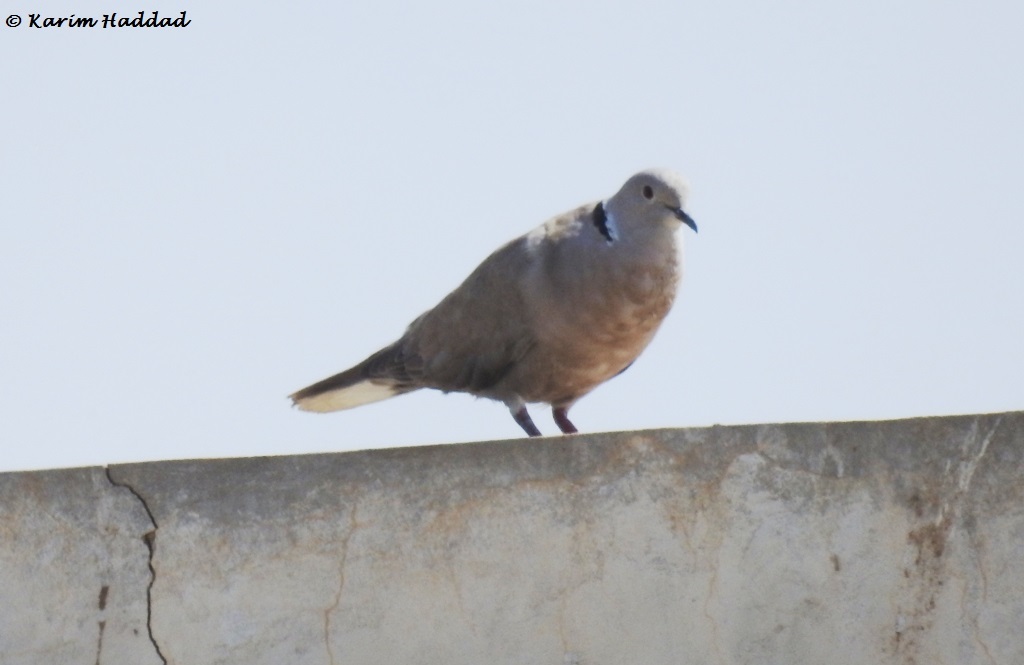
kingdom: Animalia
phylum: Chordata
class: Aves
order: Columbiformes
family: Columbidae
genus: Streptopelia
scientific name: Streptopelia roseogrisea
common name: African collared dove
